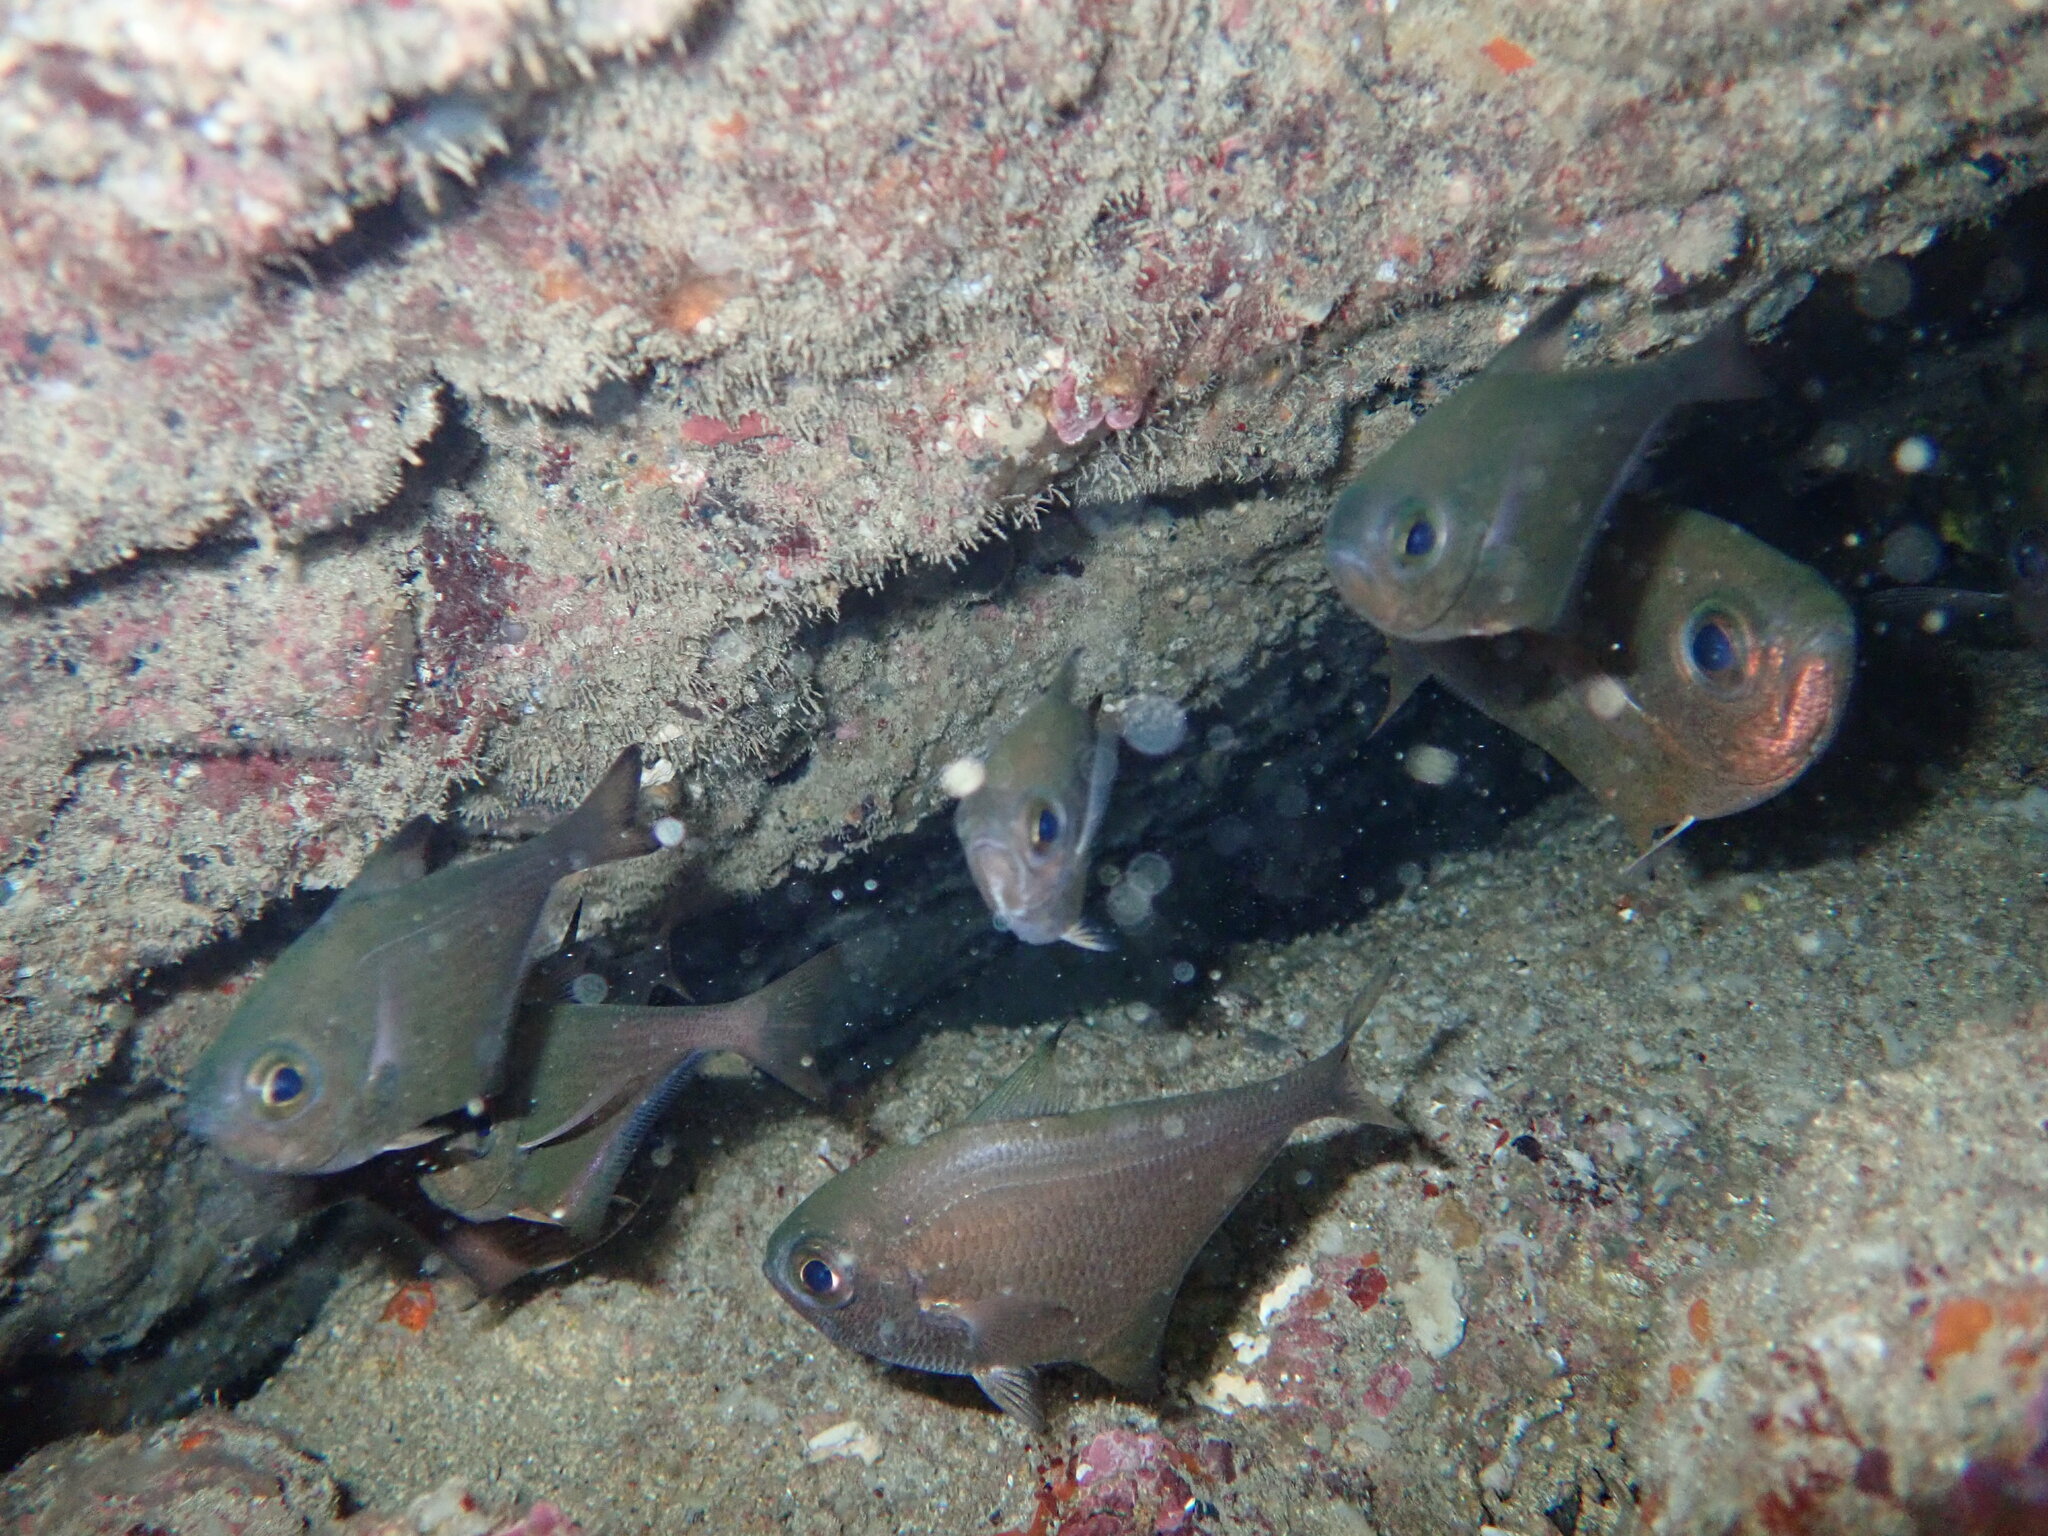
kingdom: Animalia
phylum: Chordata
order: Perciformes
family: Pempheridae
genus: Pempheris
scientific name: Pempheris rhomboidea
